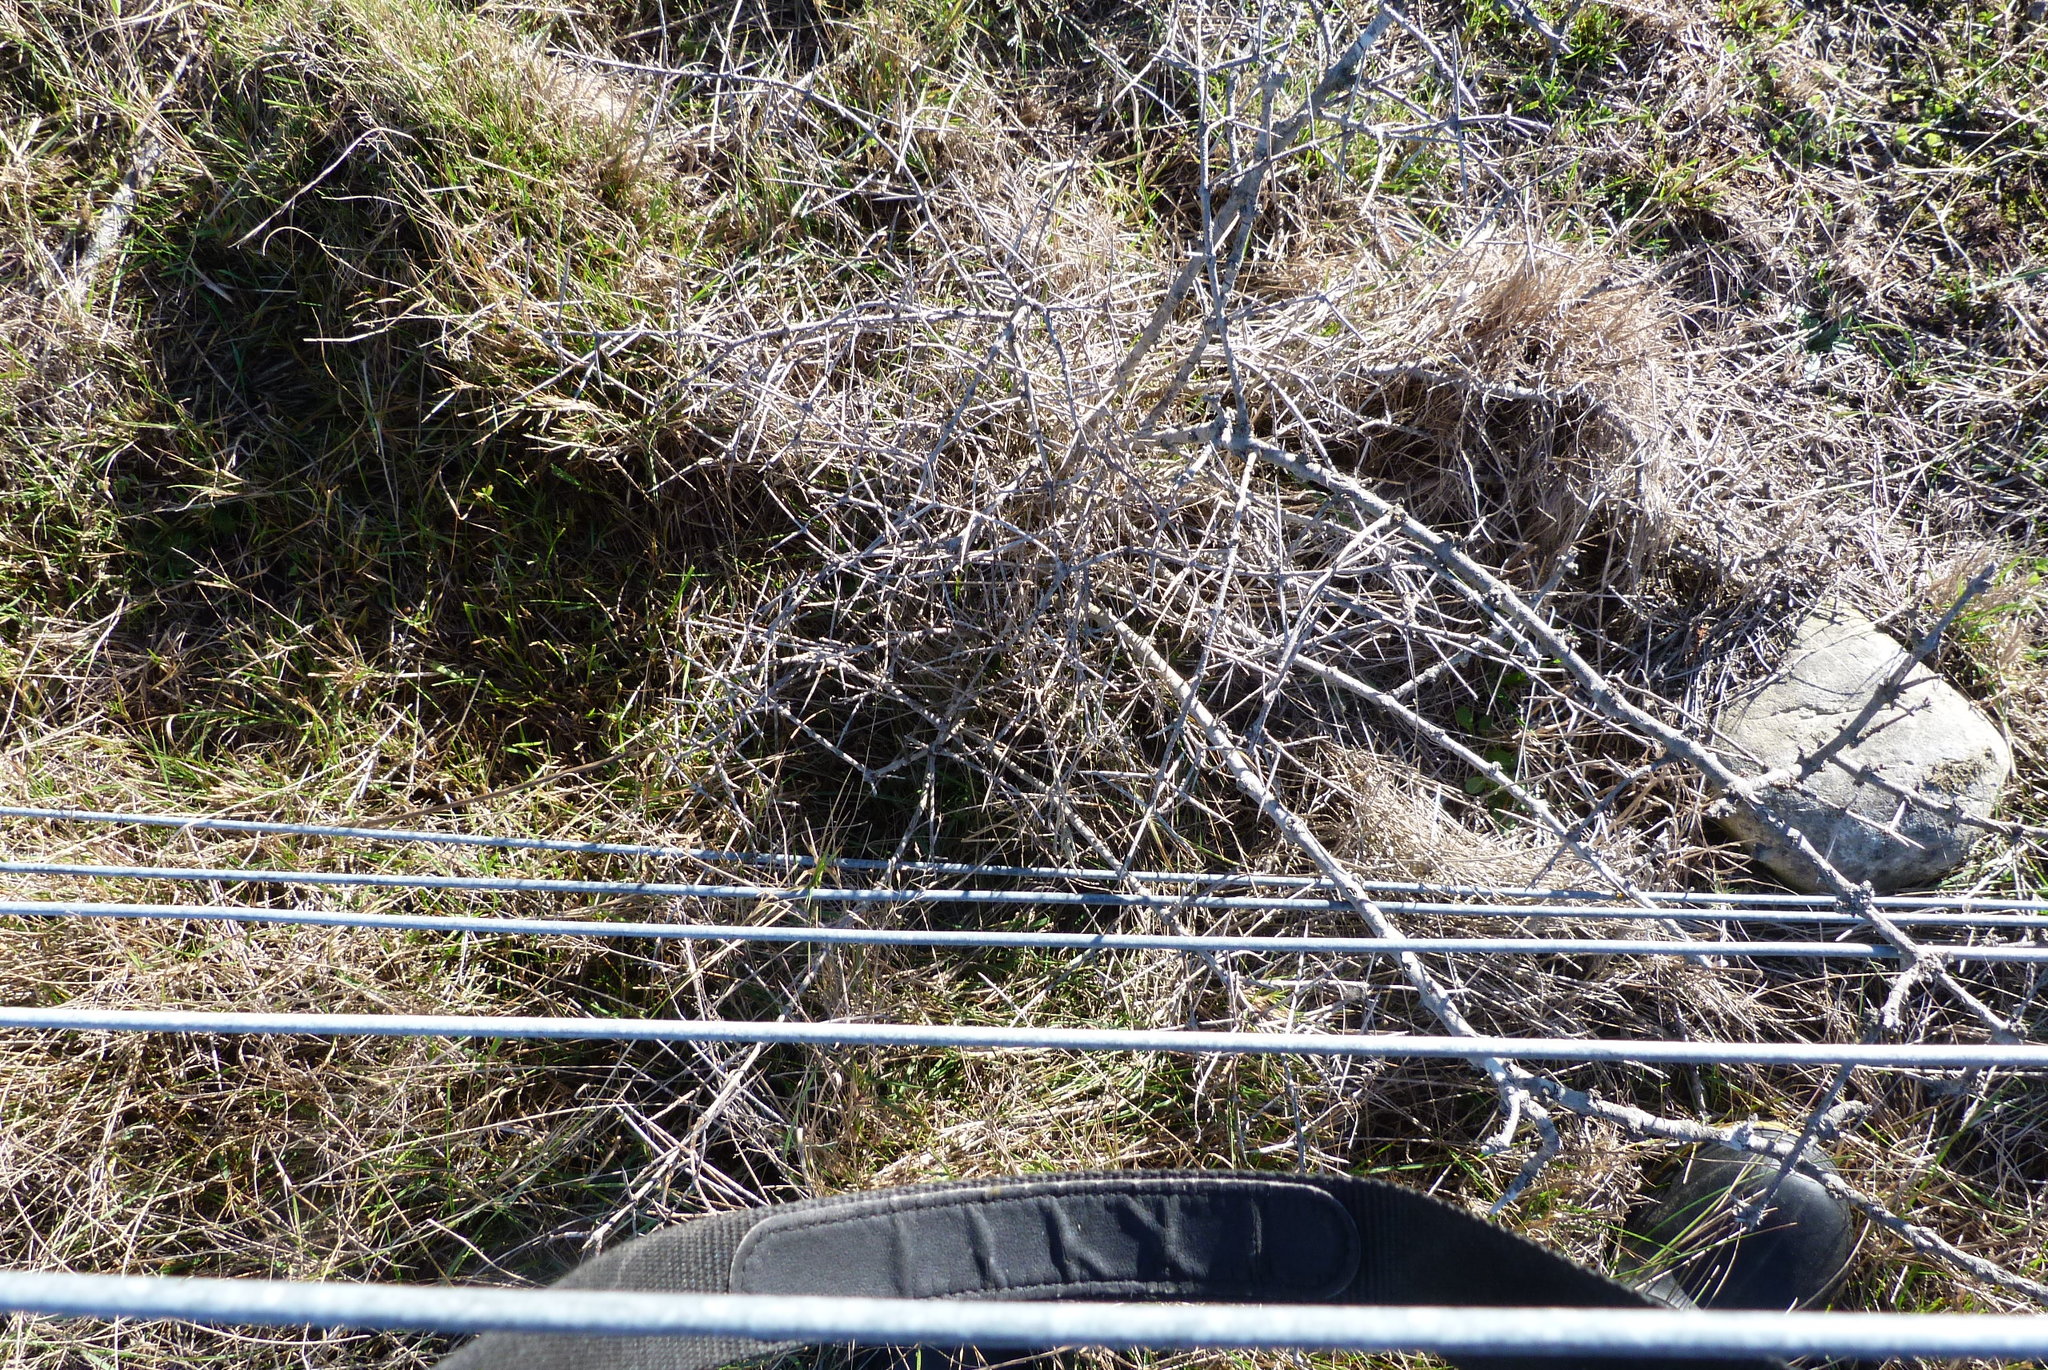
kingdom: Plantae
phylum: Tracheophyta
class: Magnoliopsida
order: Rosales
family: Rhamnaceae
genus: Discaria
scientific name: Discaria toumatou
